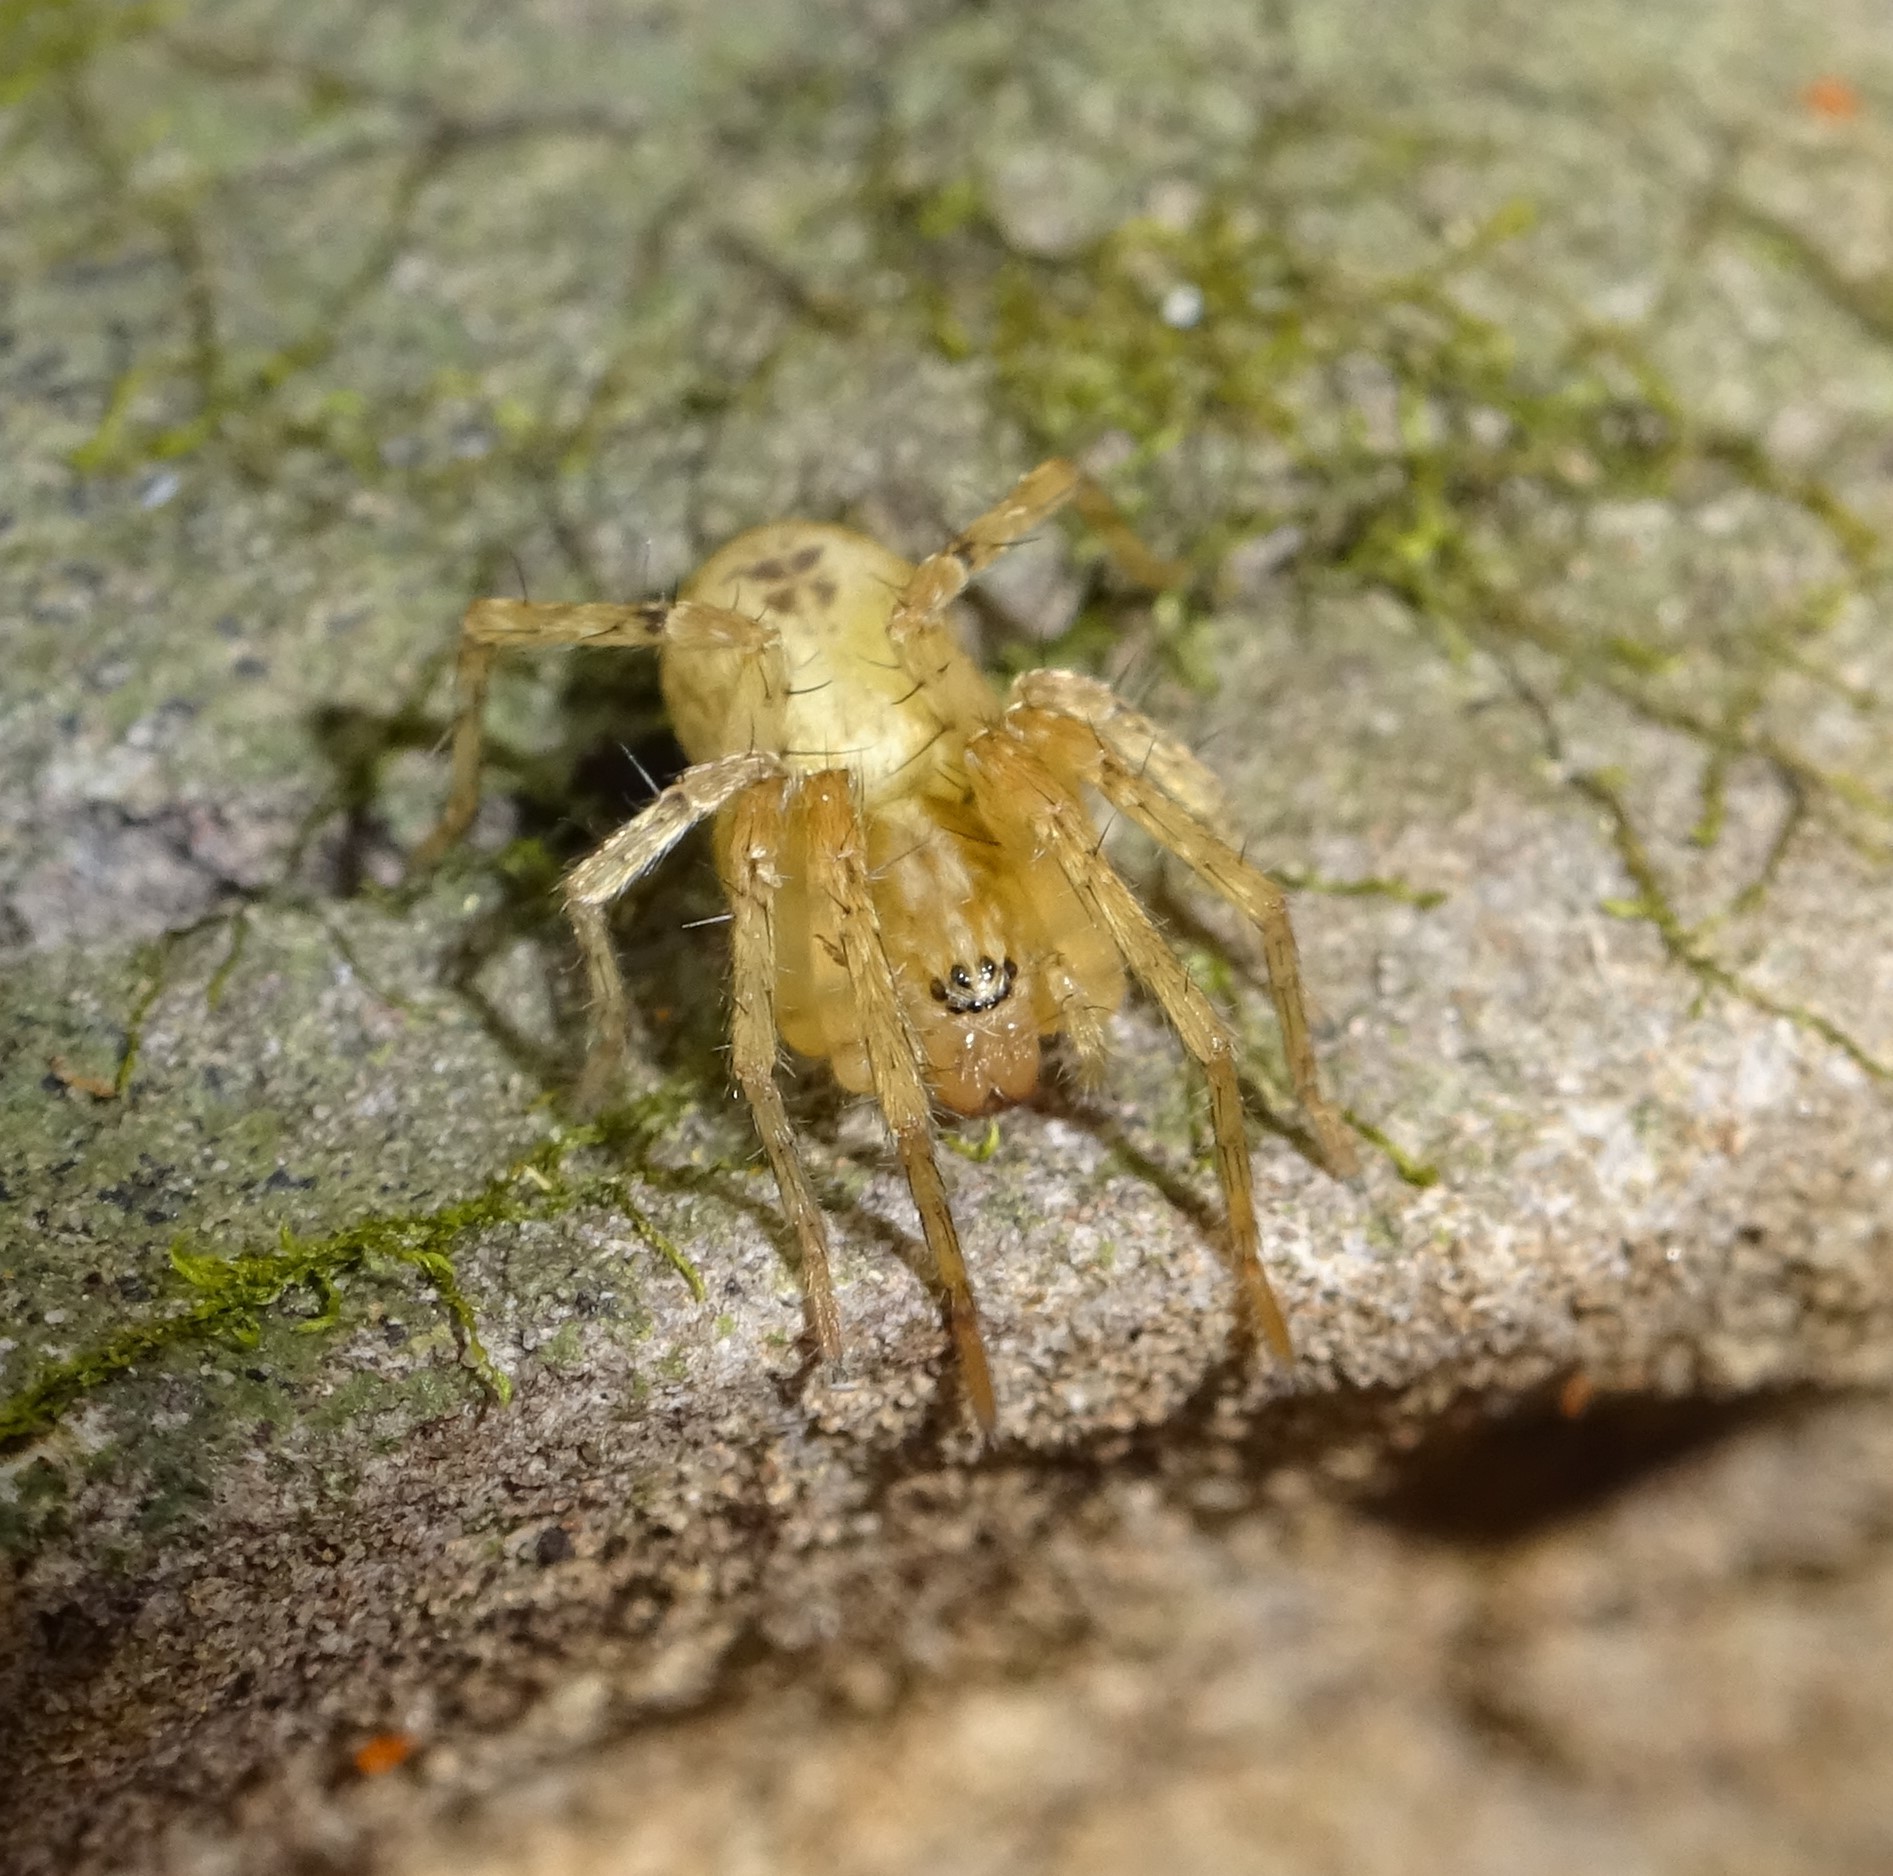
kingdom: Animalia
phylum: Arthropoda
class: Arachnida
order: Araneae
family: Anyphaenidae
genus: Anyphaena
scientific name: Anyphaena accentuata
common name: Buzzing spider
